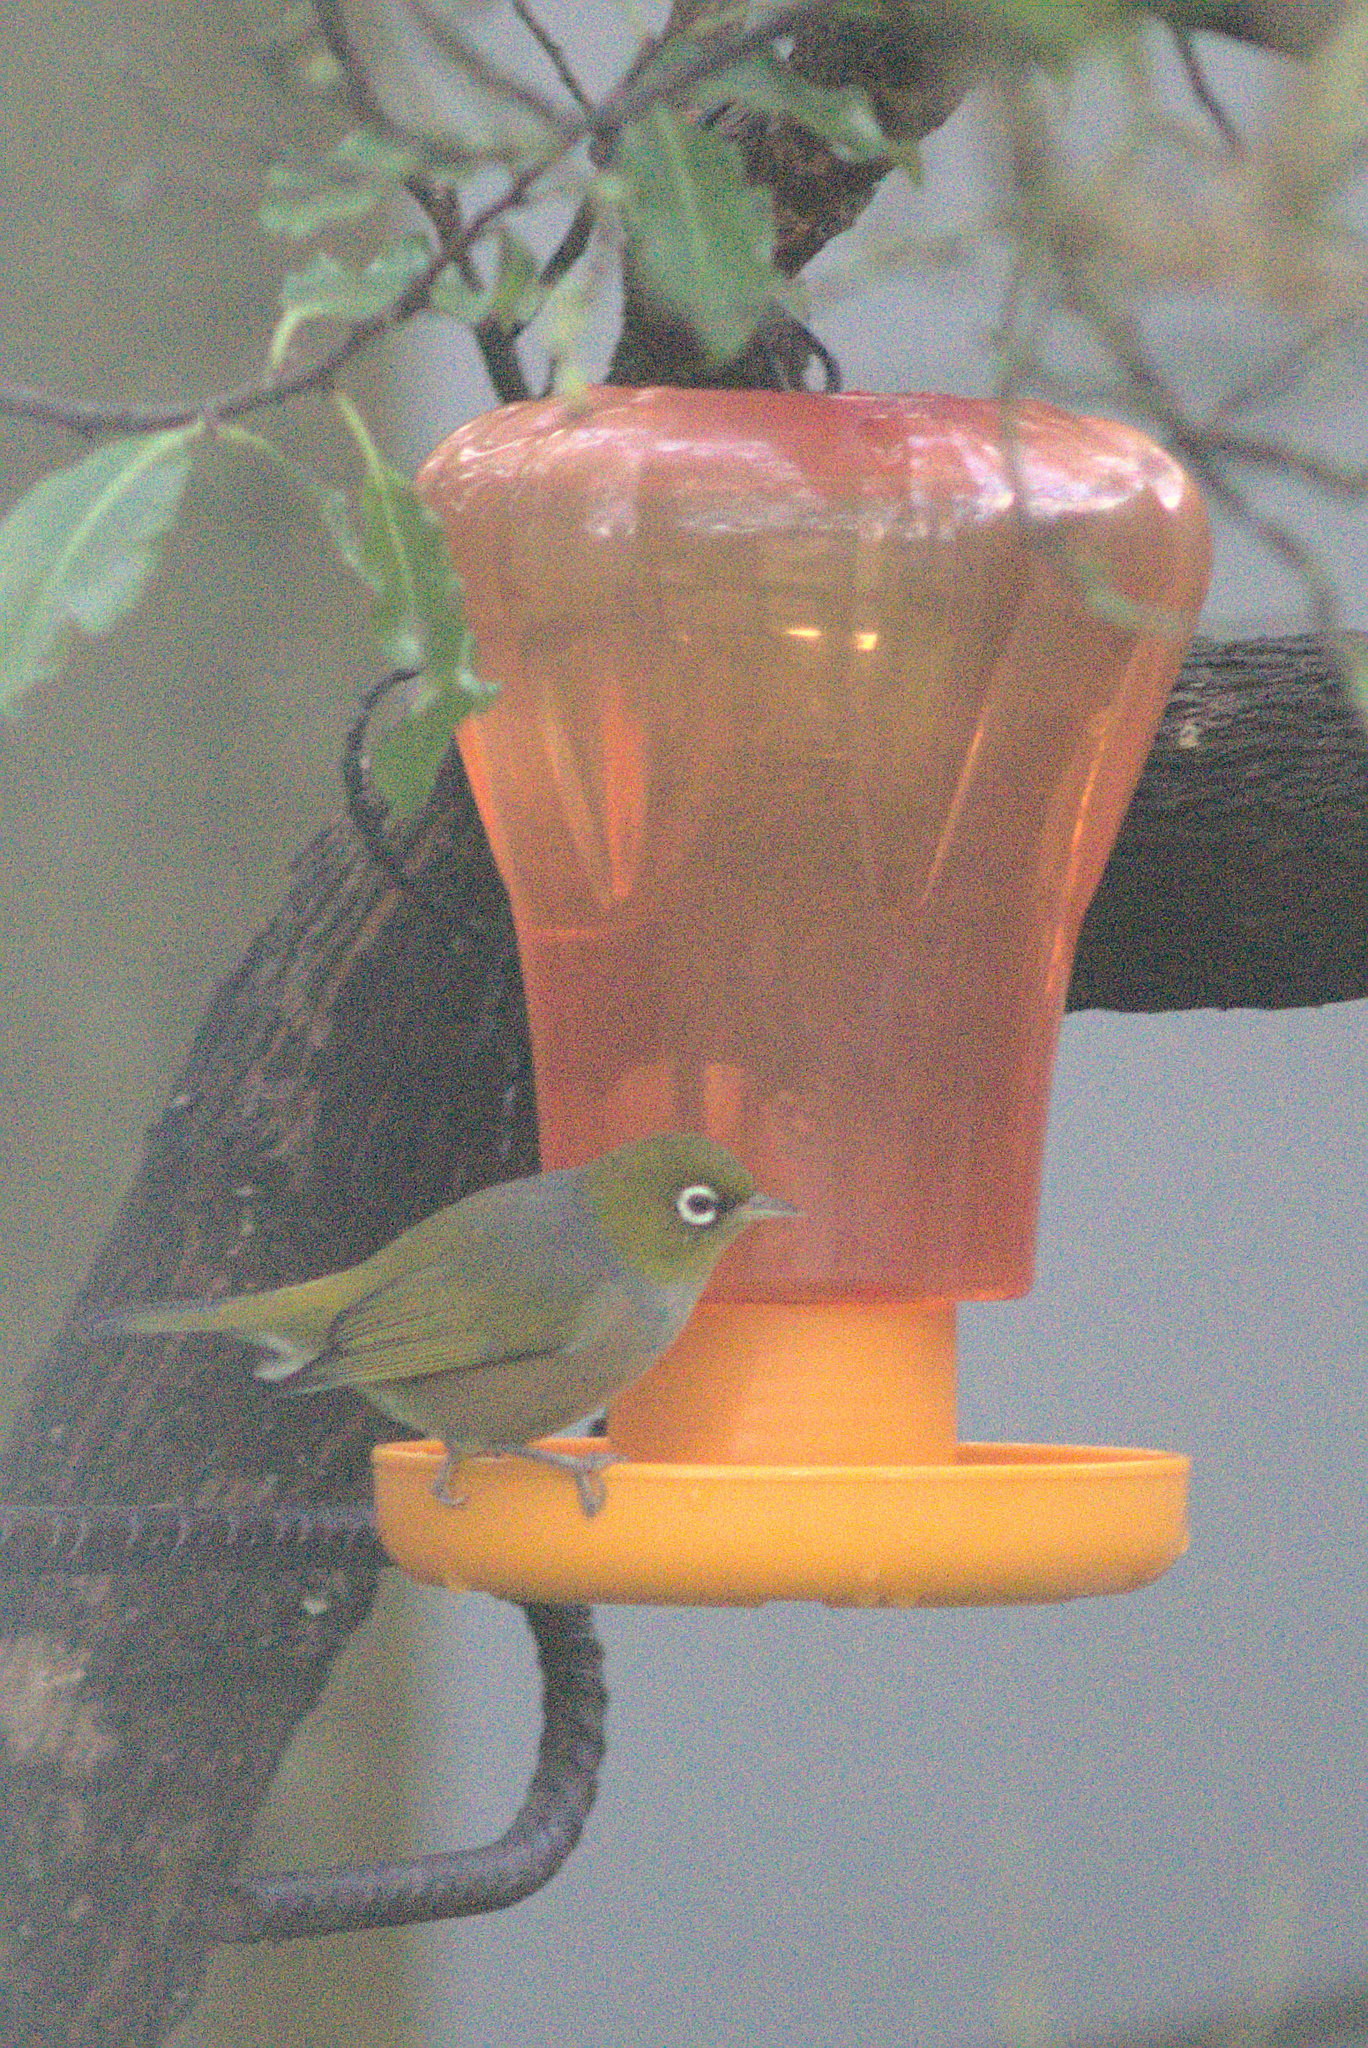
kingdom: Animalia
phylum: Chordata
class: Aves
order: Passeriformes
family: Zosteropidae
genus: Zosterops
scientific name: Zosterops lateralis
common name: Silvereye
